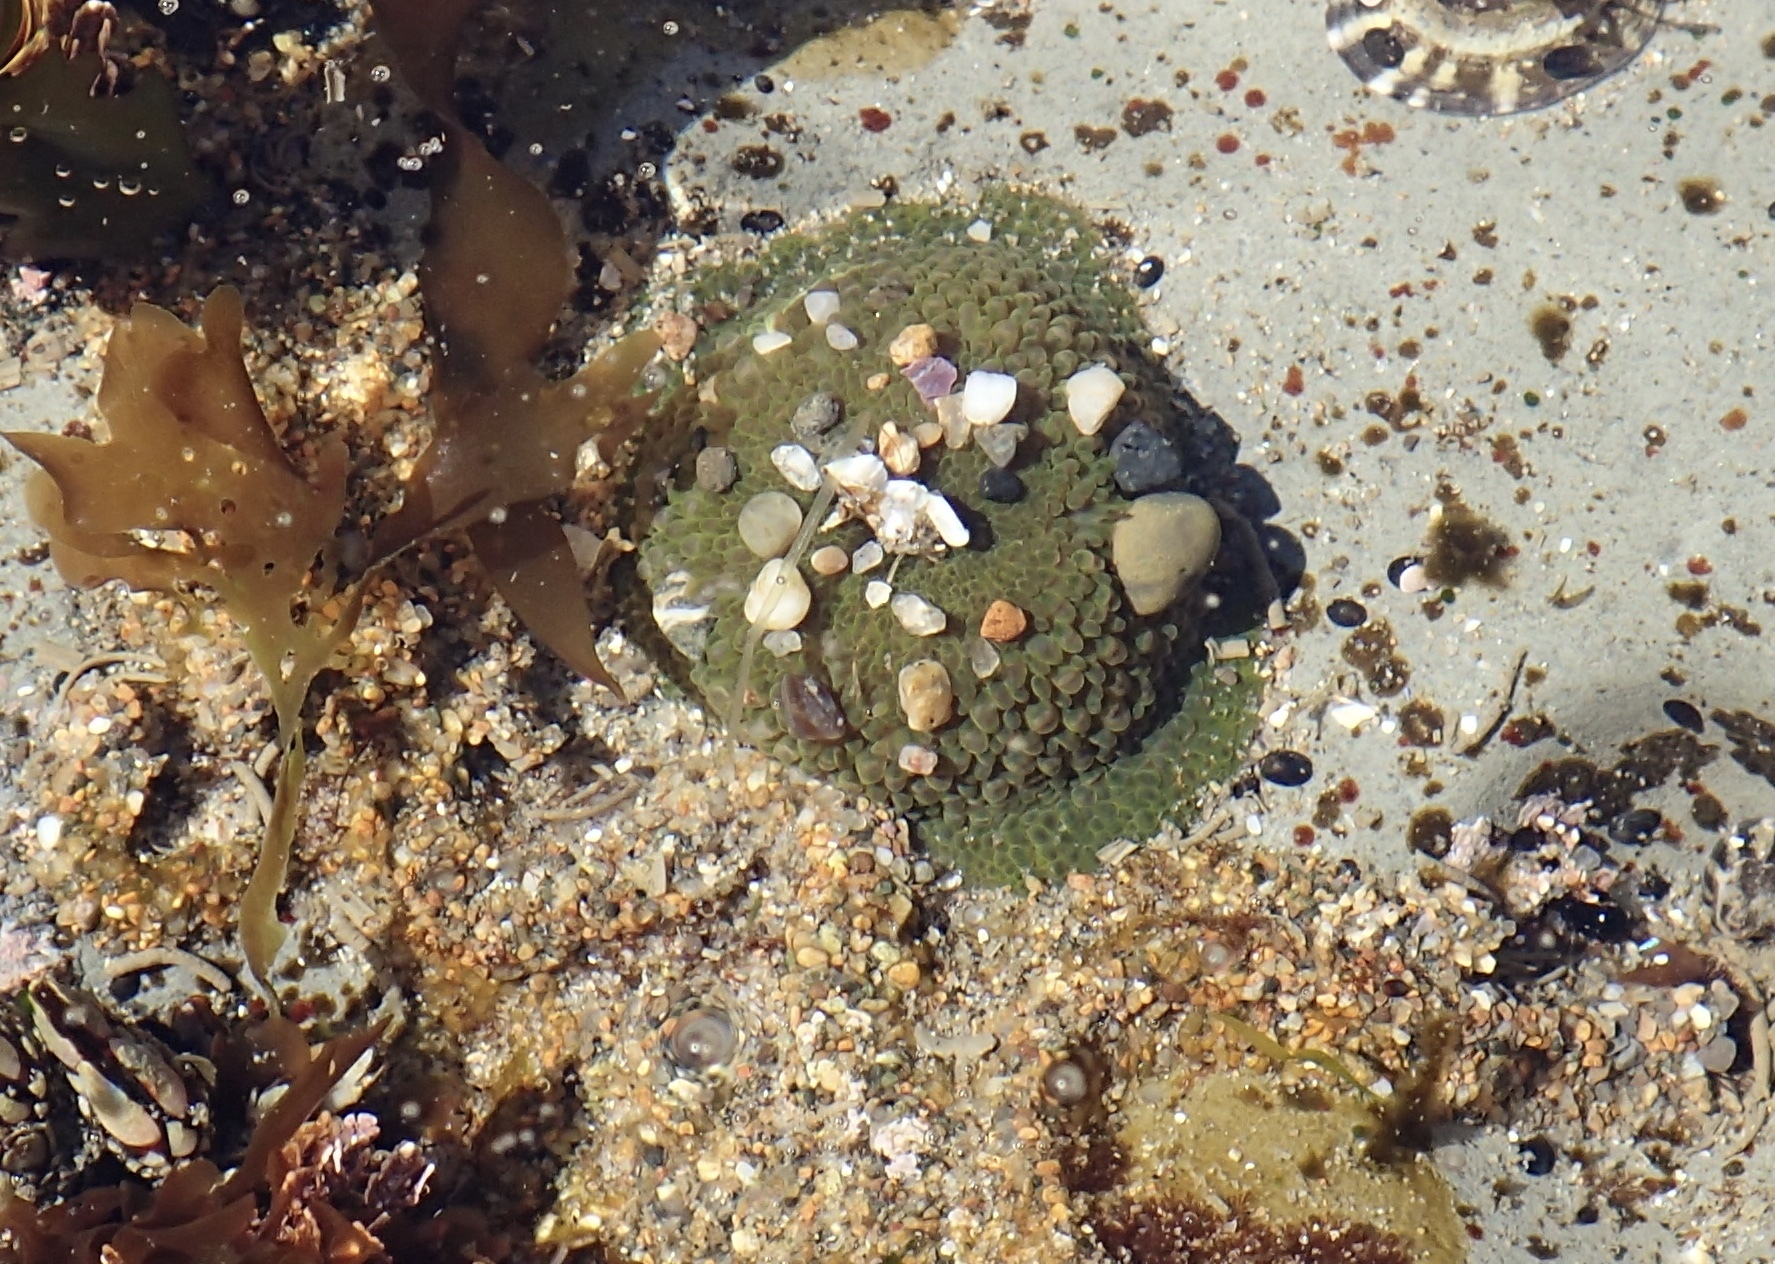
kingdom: Animalia
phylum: Cnidaria
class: Anthozoa
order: Actiniaria
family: Actiniidae
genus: Anthopleura
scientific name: Anthopleura xanthogrammica
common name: Giant green anemone
